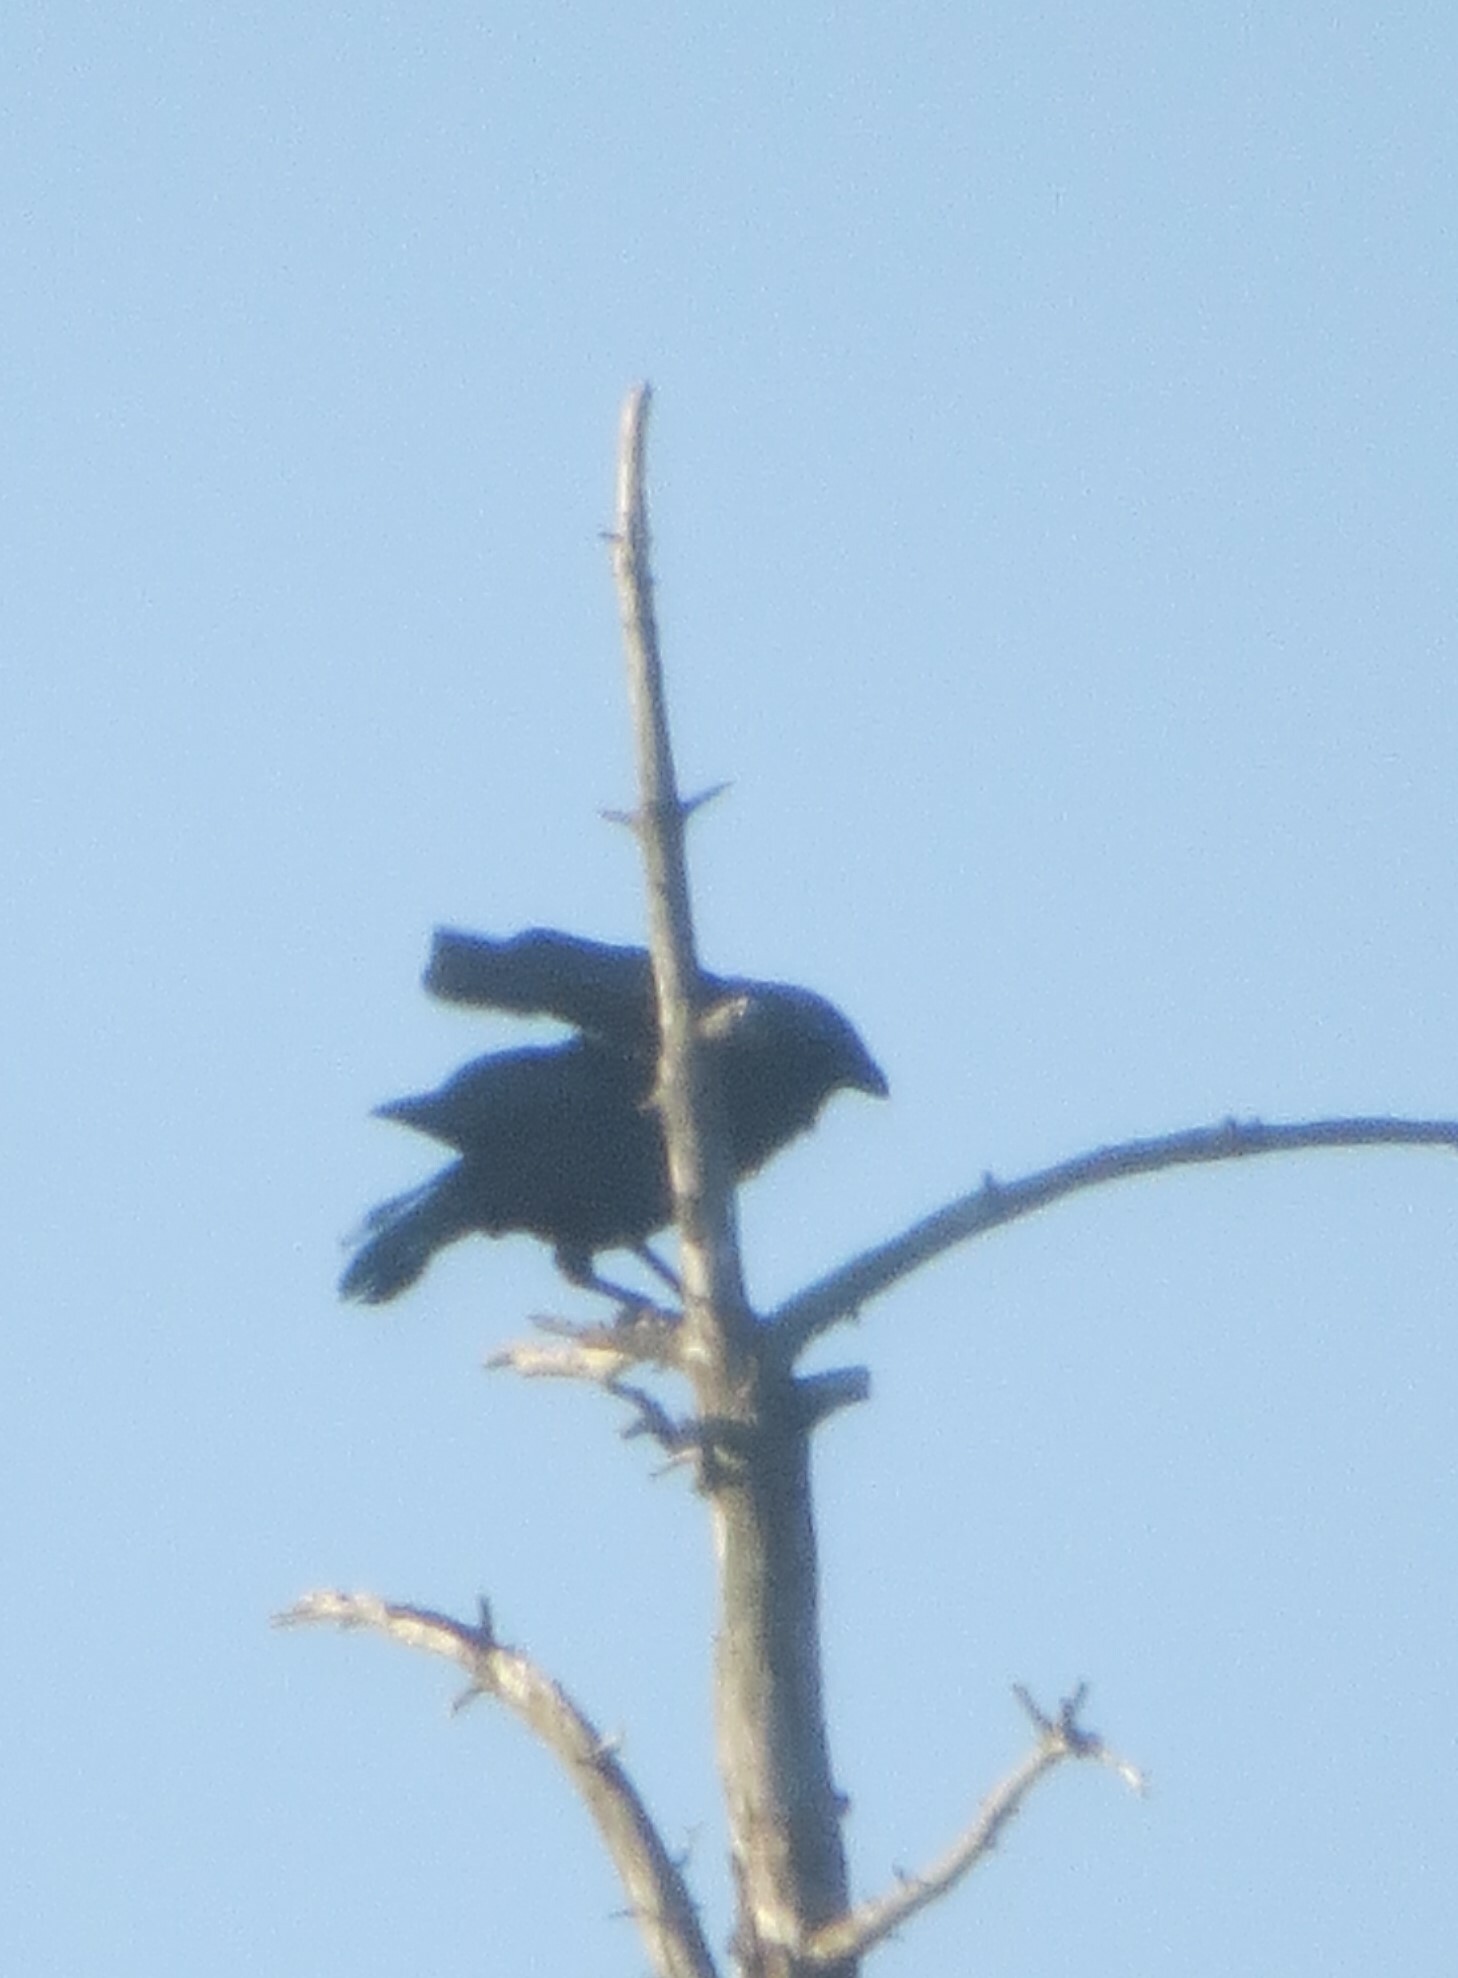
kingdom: Animalia
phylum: Chordata
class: Aves
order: Passeriformes
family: Corvidae
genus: Corvus
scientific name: Corvus brachyrhynchos
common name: American crow
